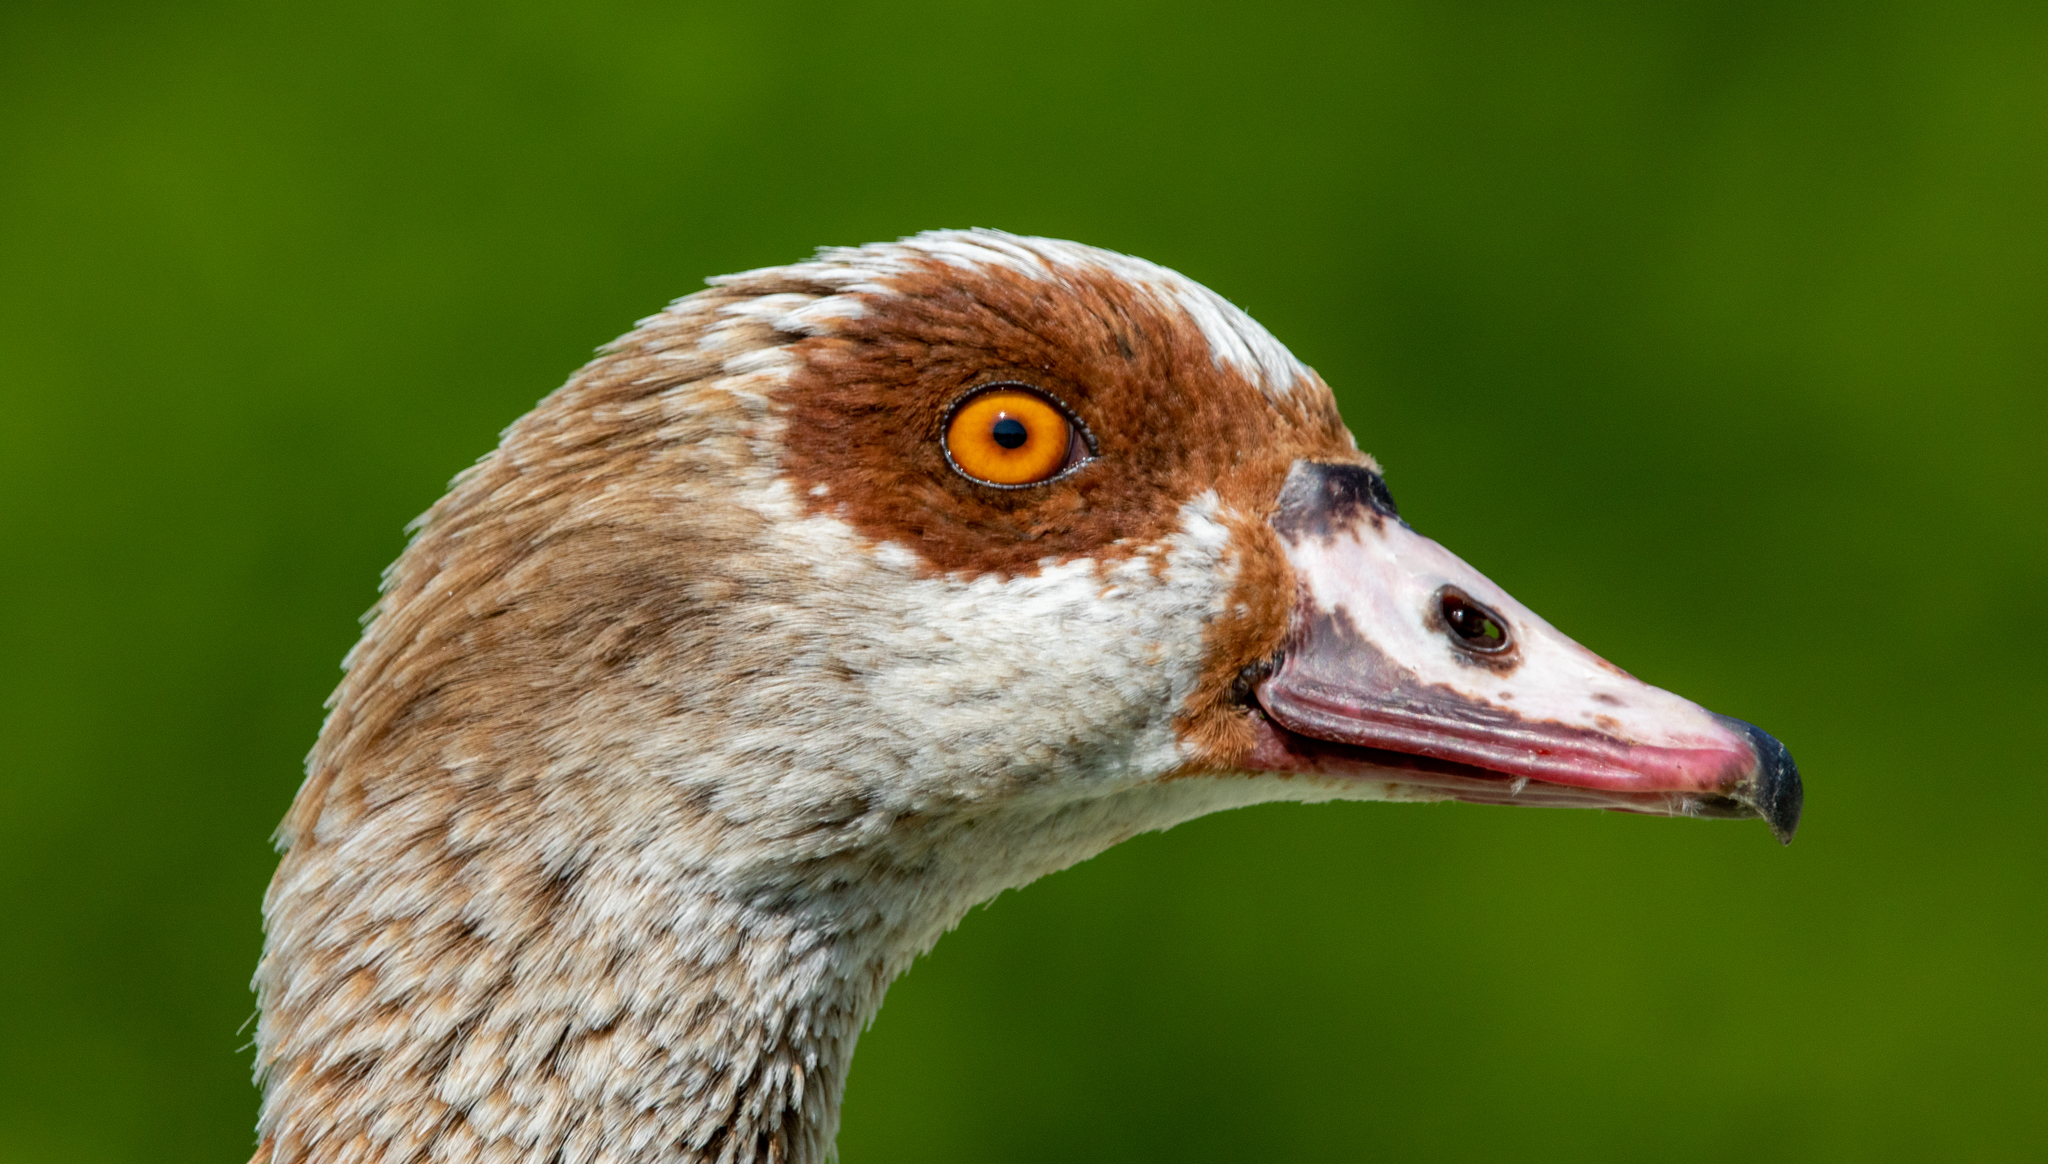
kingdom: Animalia
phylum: Chordata
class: Aves
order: Anseriformes
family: Anatidae
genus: Alopochen
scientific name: Alopochen aegyptiaca
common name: Egyptian goose
